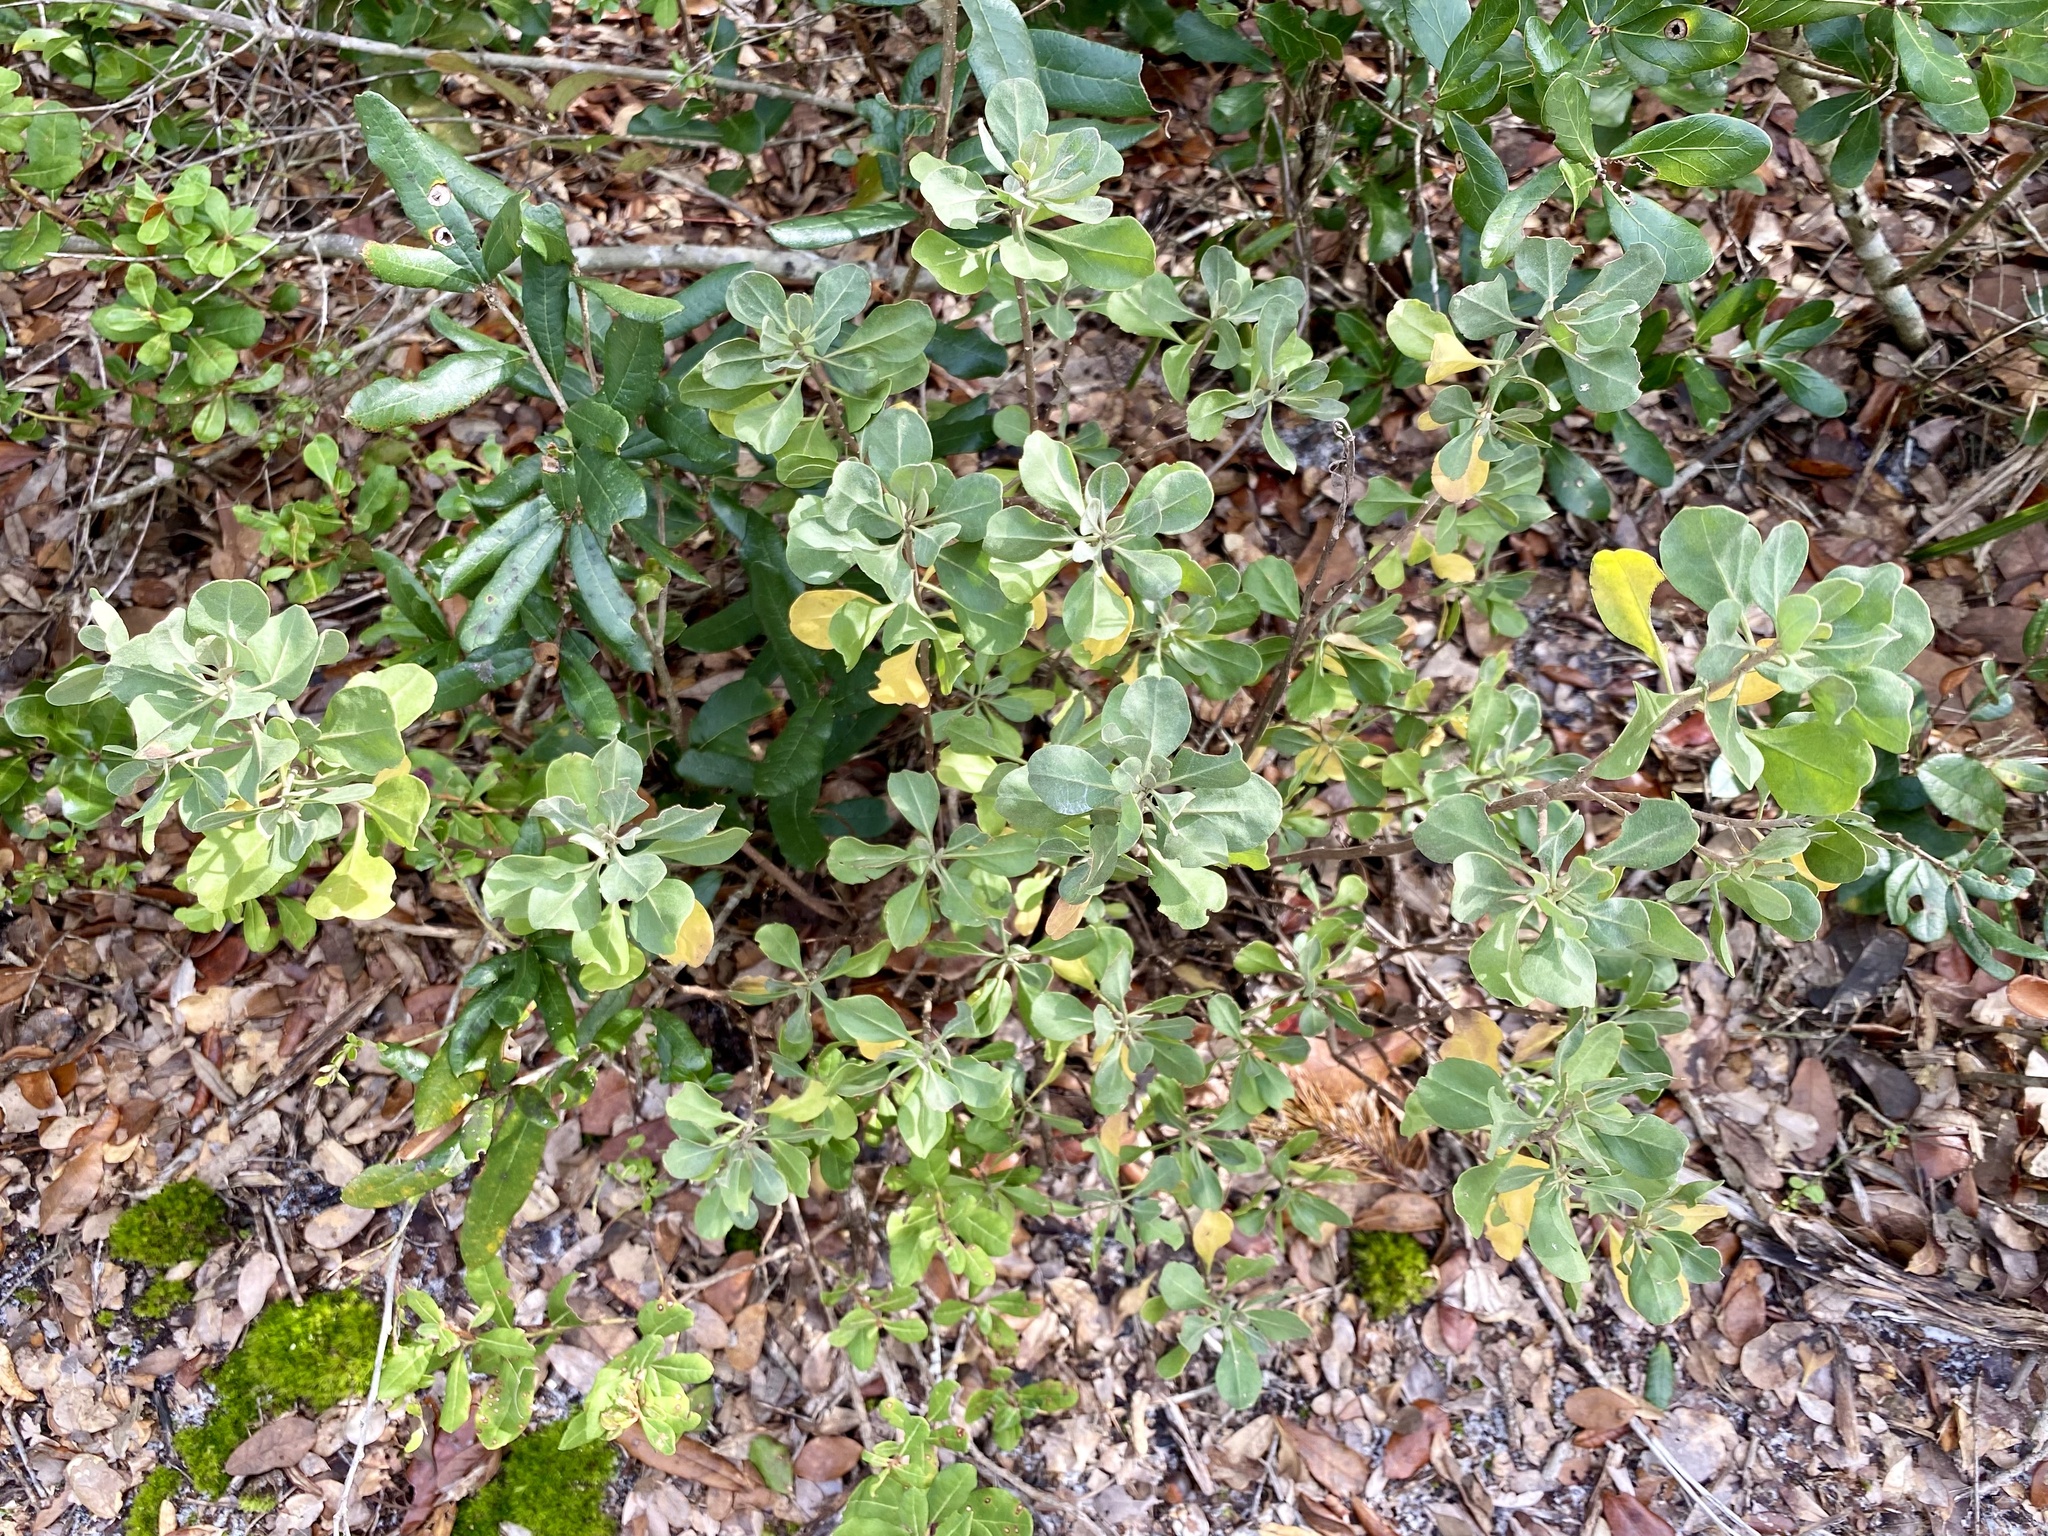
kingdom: Plantae
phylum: Tracheophyta
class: Magnoliopsida
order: Asterales
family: Asteraceae
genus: Garberia
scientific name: Garberia heterophylla
